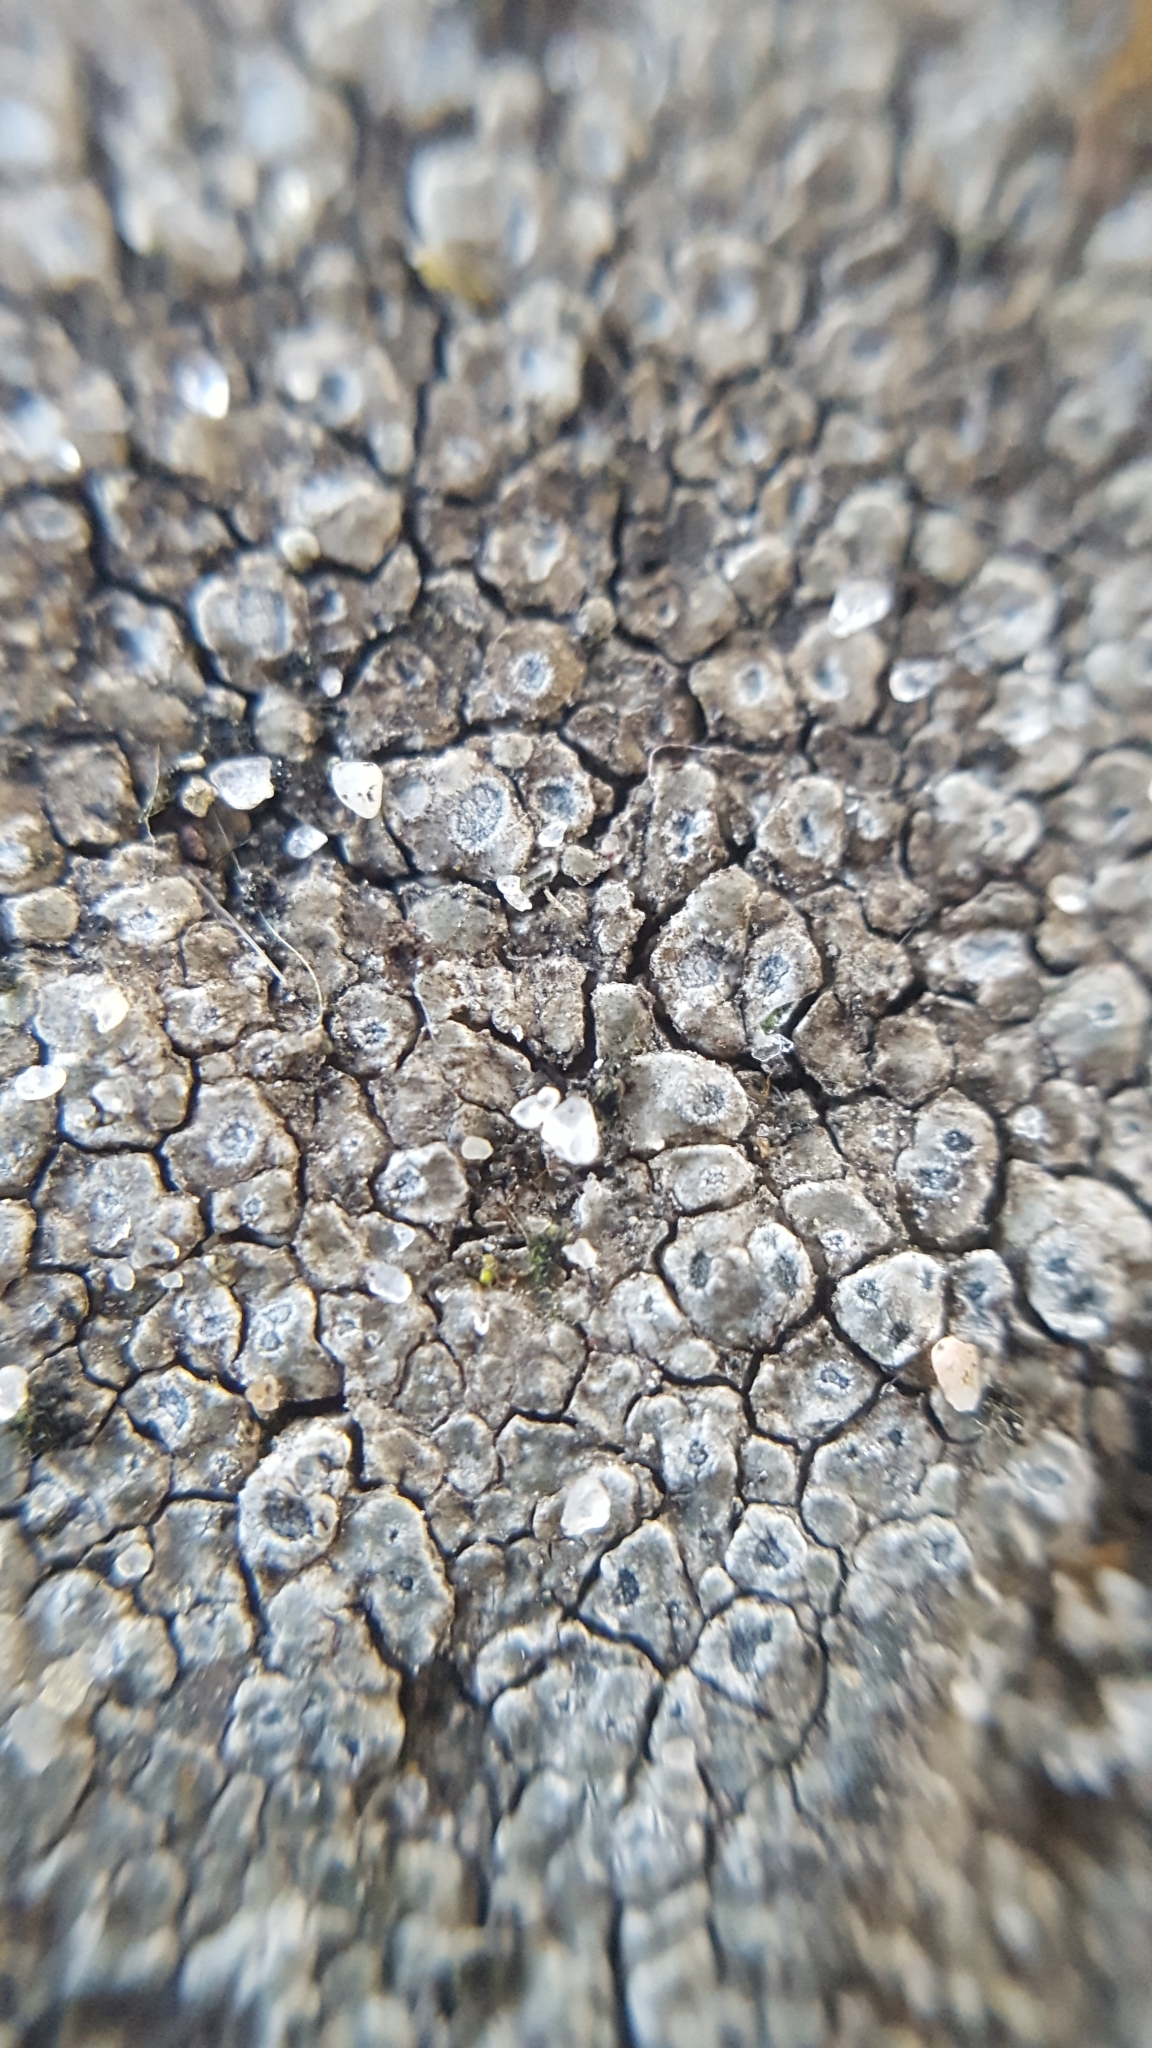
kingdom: Fungi
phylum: Ascomycota
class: Lecanoromycetes
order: Pertusariales
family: Megasporaceae
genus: Circinaria
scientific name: Circinaria contorta
